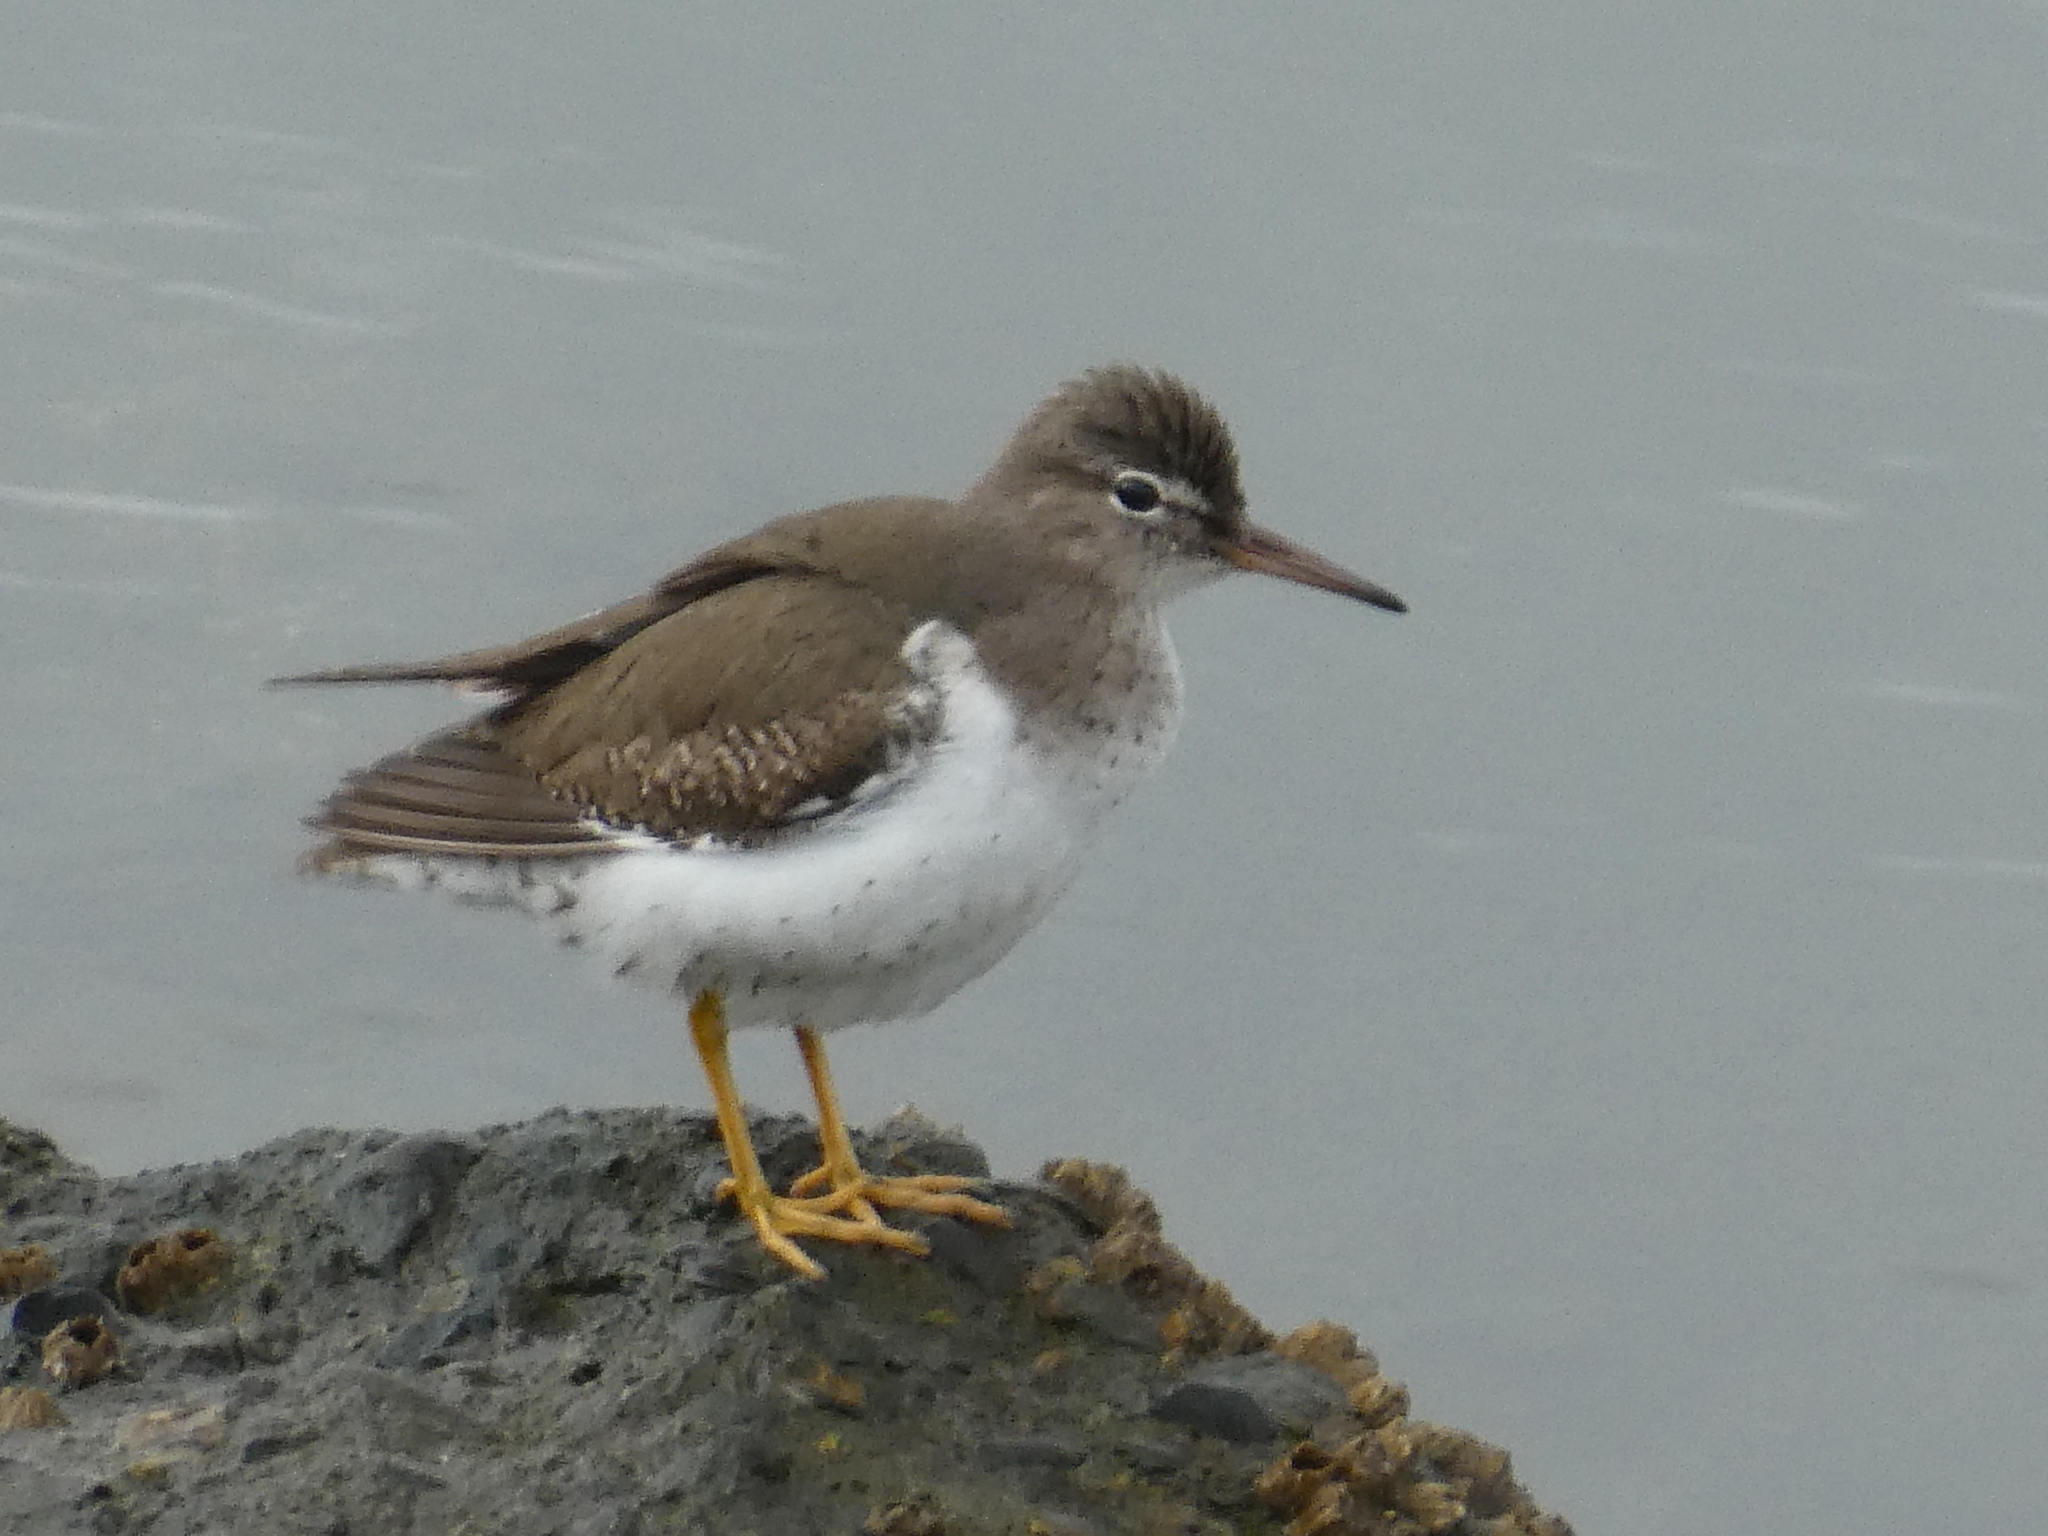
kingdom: Animalia
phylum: Chordata
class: Aves
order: Charadriiformes
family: Scolopacidae
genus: Actitis
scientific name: Actitis macularius
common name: Spotted sandpiper
